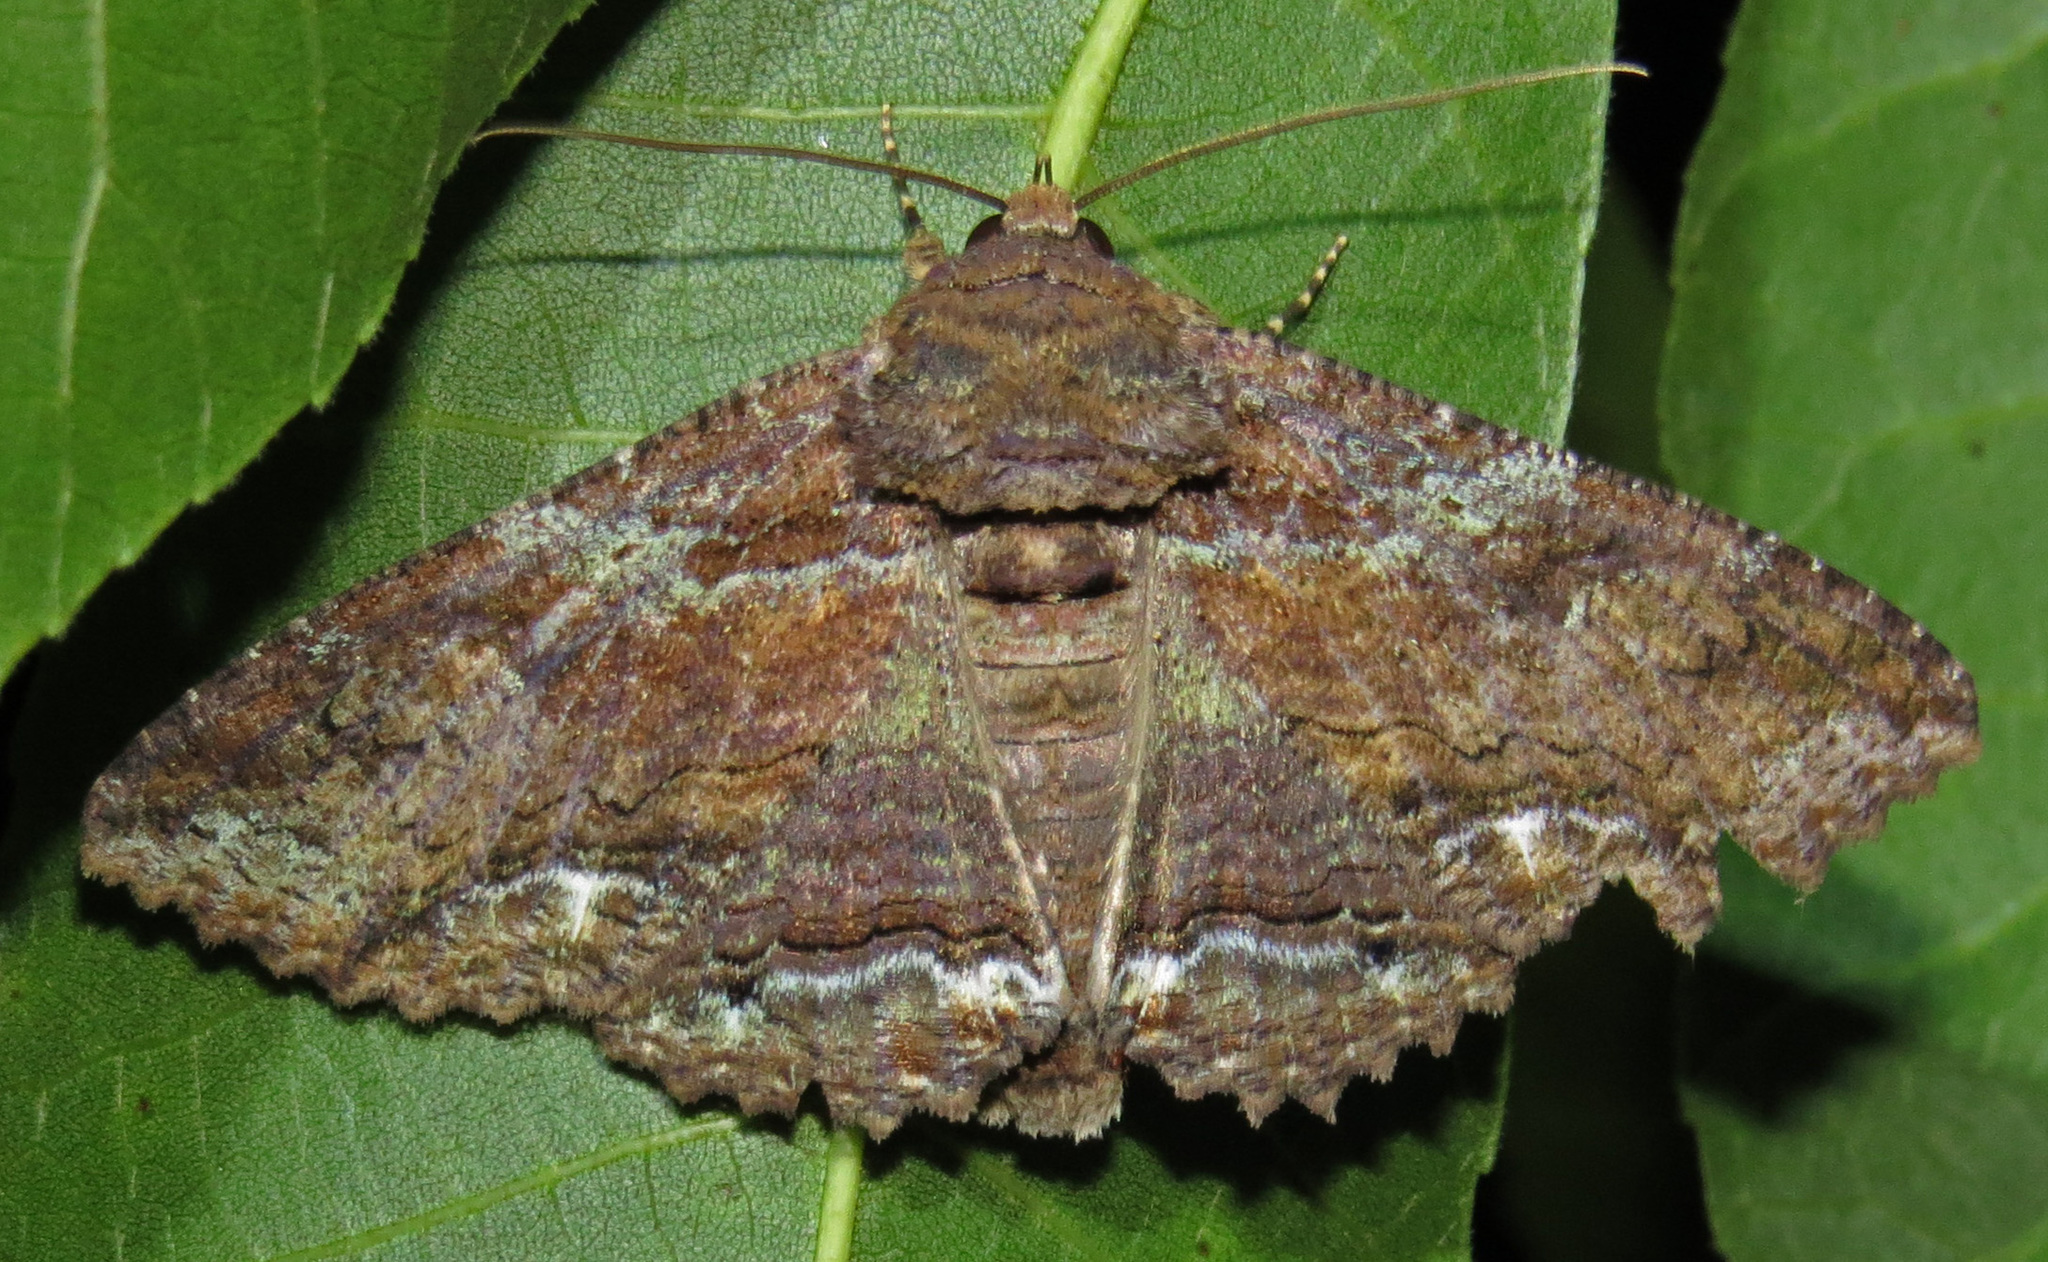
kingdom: Animalia
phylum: Arthropoda
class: Insecta
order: Lepidoptera
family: Erebidae
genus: Zale
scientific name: Zale lunata
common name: Lunate zale moth
